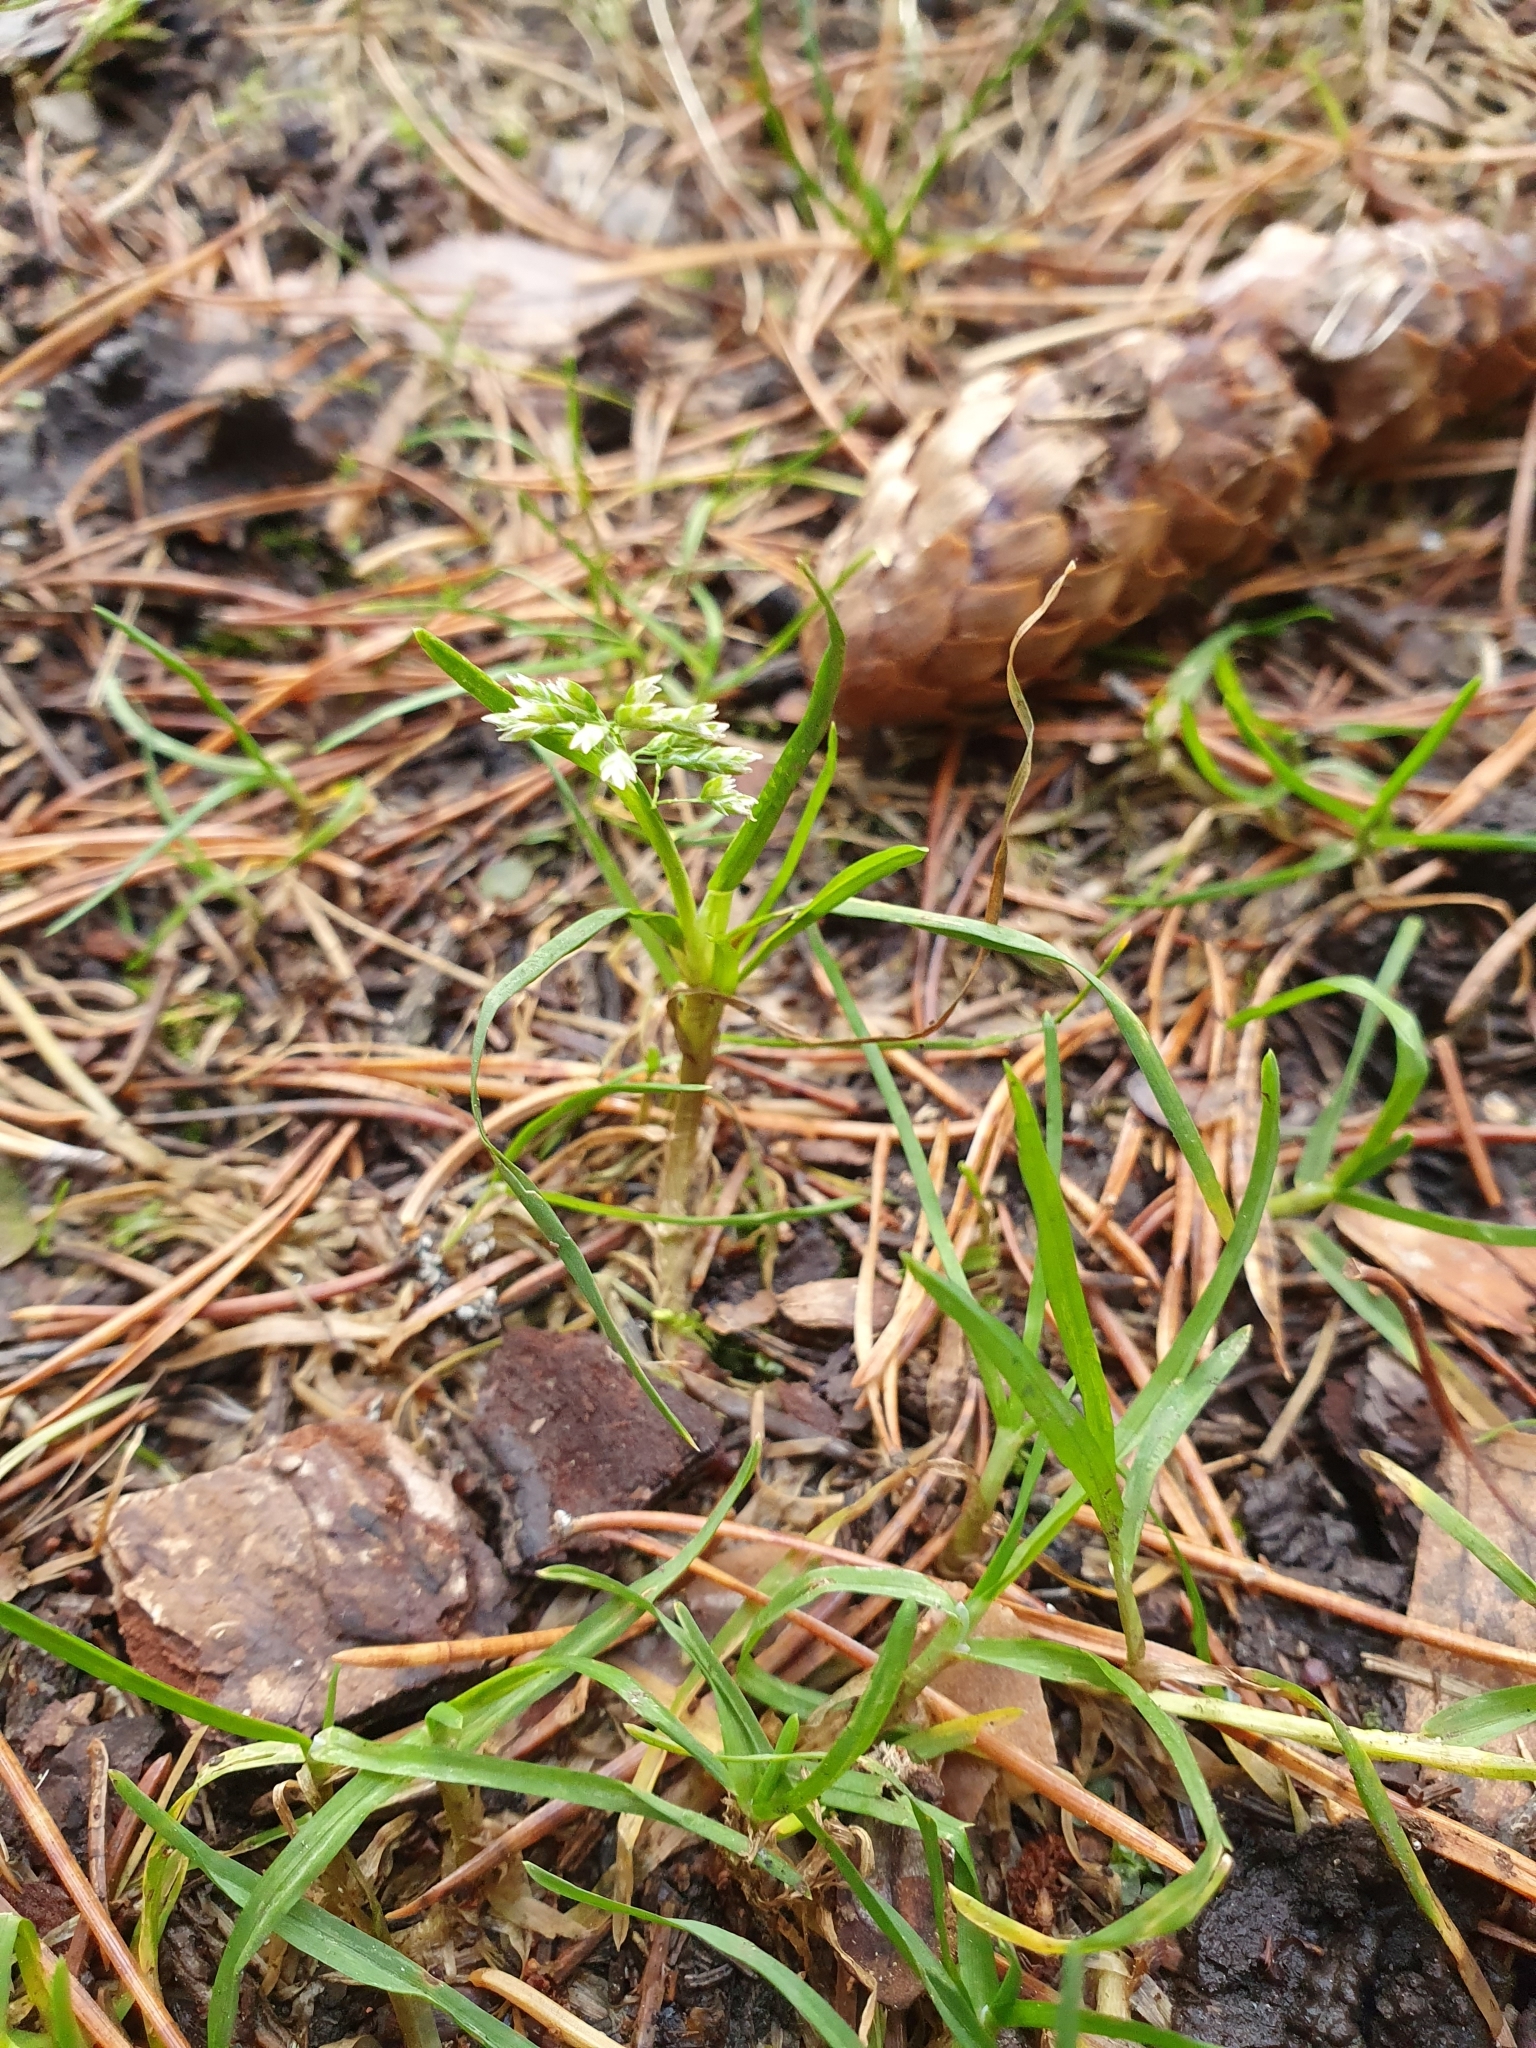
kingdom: Plantae
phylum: Tracheophyta
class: Liliopsida
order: Poales
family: Poaceae
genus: Poa
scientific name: Poa annua
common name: Annual bluegrass
